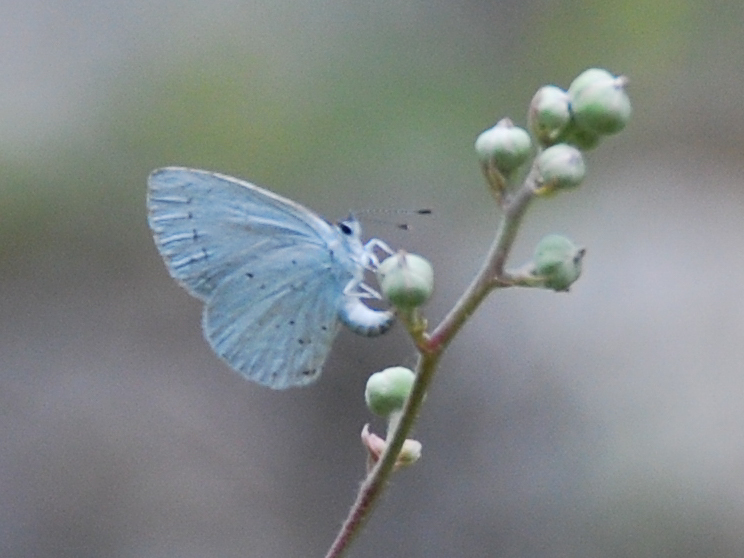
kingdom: Animalia
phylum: Arthropoda
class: Insecta
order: Lepidoptera
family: Lycaenidae
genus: Celastrina
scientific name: Celastrina argiolus
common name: Holly blue
